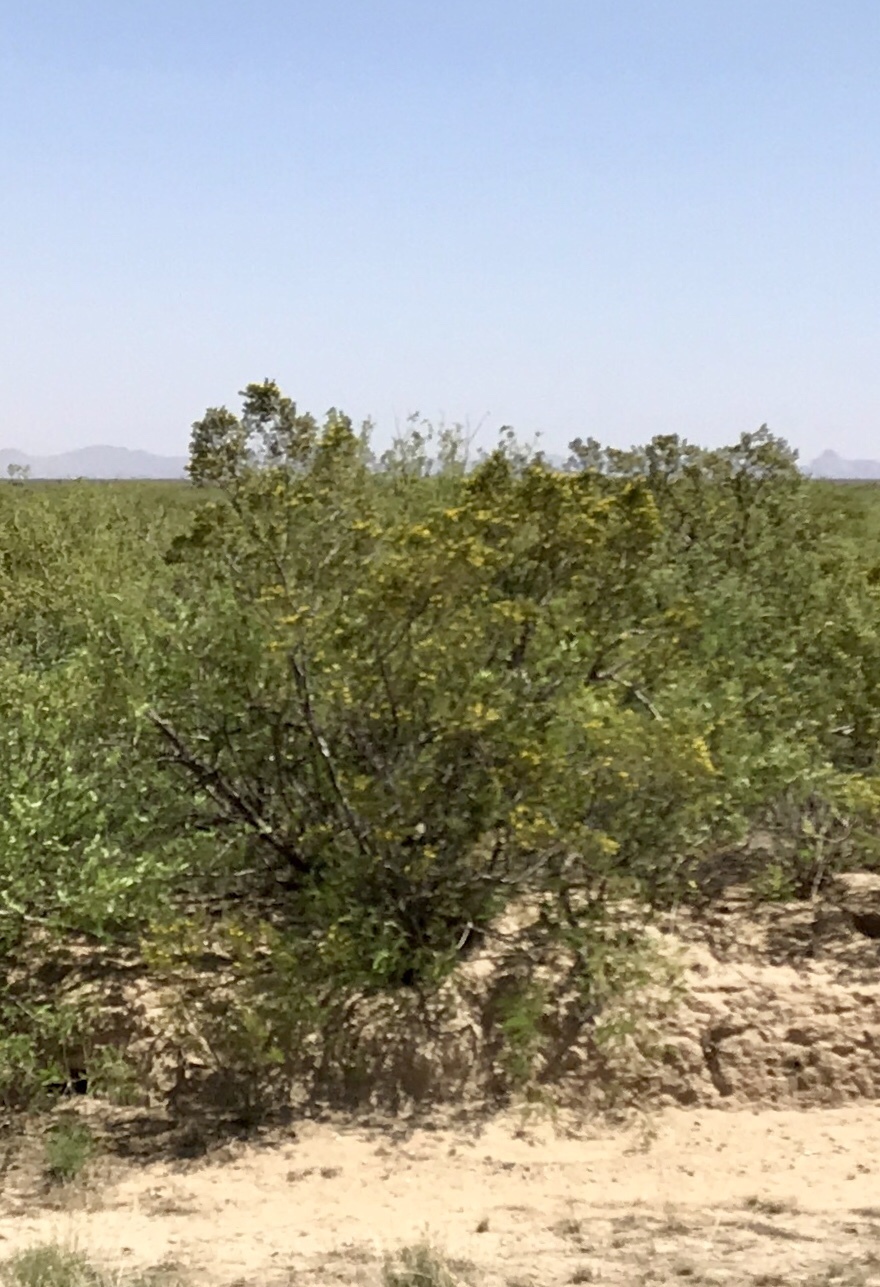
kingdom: Plantae
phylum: Tracheophyta
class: Magnoliopsida
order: Zygophyllales
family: Zygophyllaceae
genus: Larrea
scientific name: Larrea tridentata
